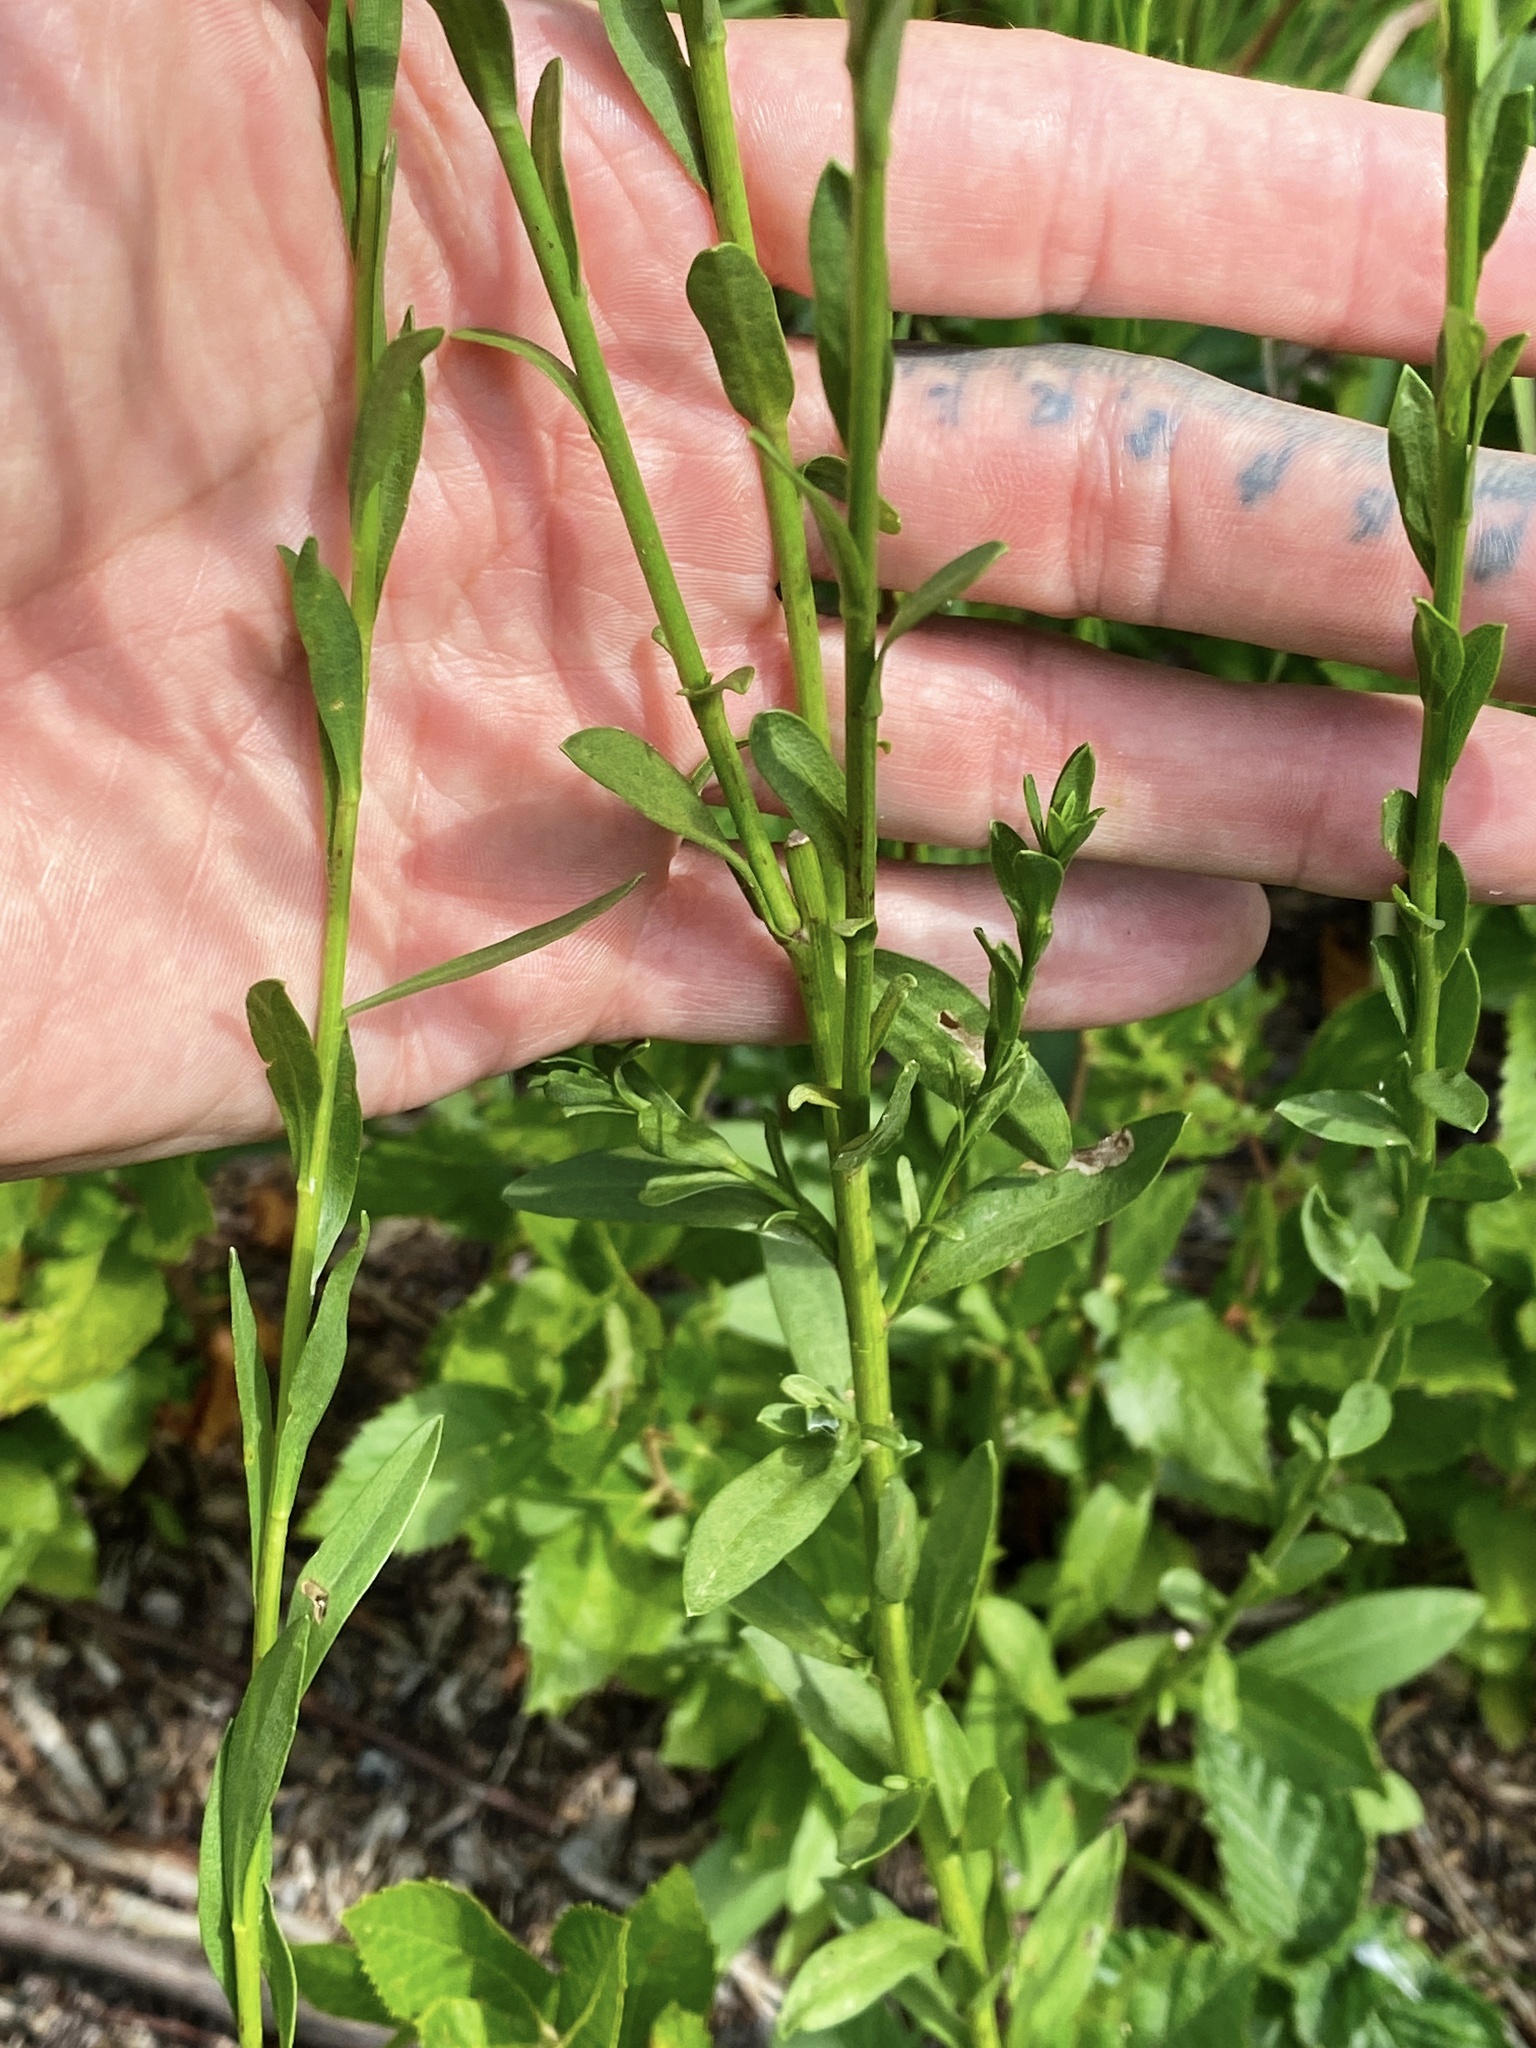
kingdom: Plantae
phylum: Tracheophyta
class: Magnoliopsida
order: Asterales
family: Asteraceae
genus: Solidago
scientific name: Solidago stricta
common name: Pine barren bog goldenrod
